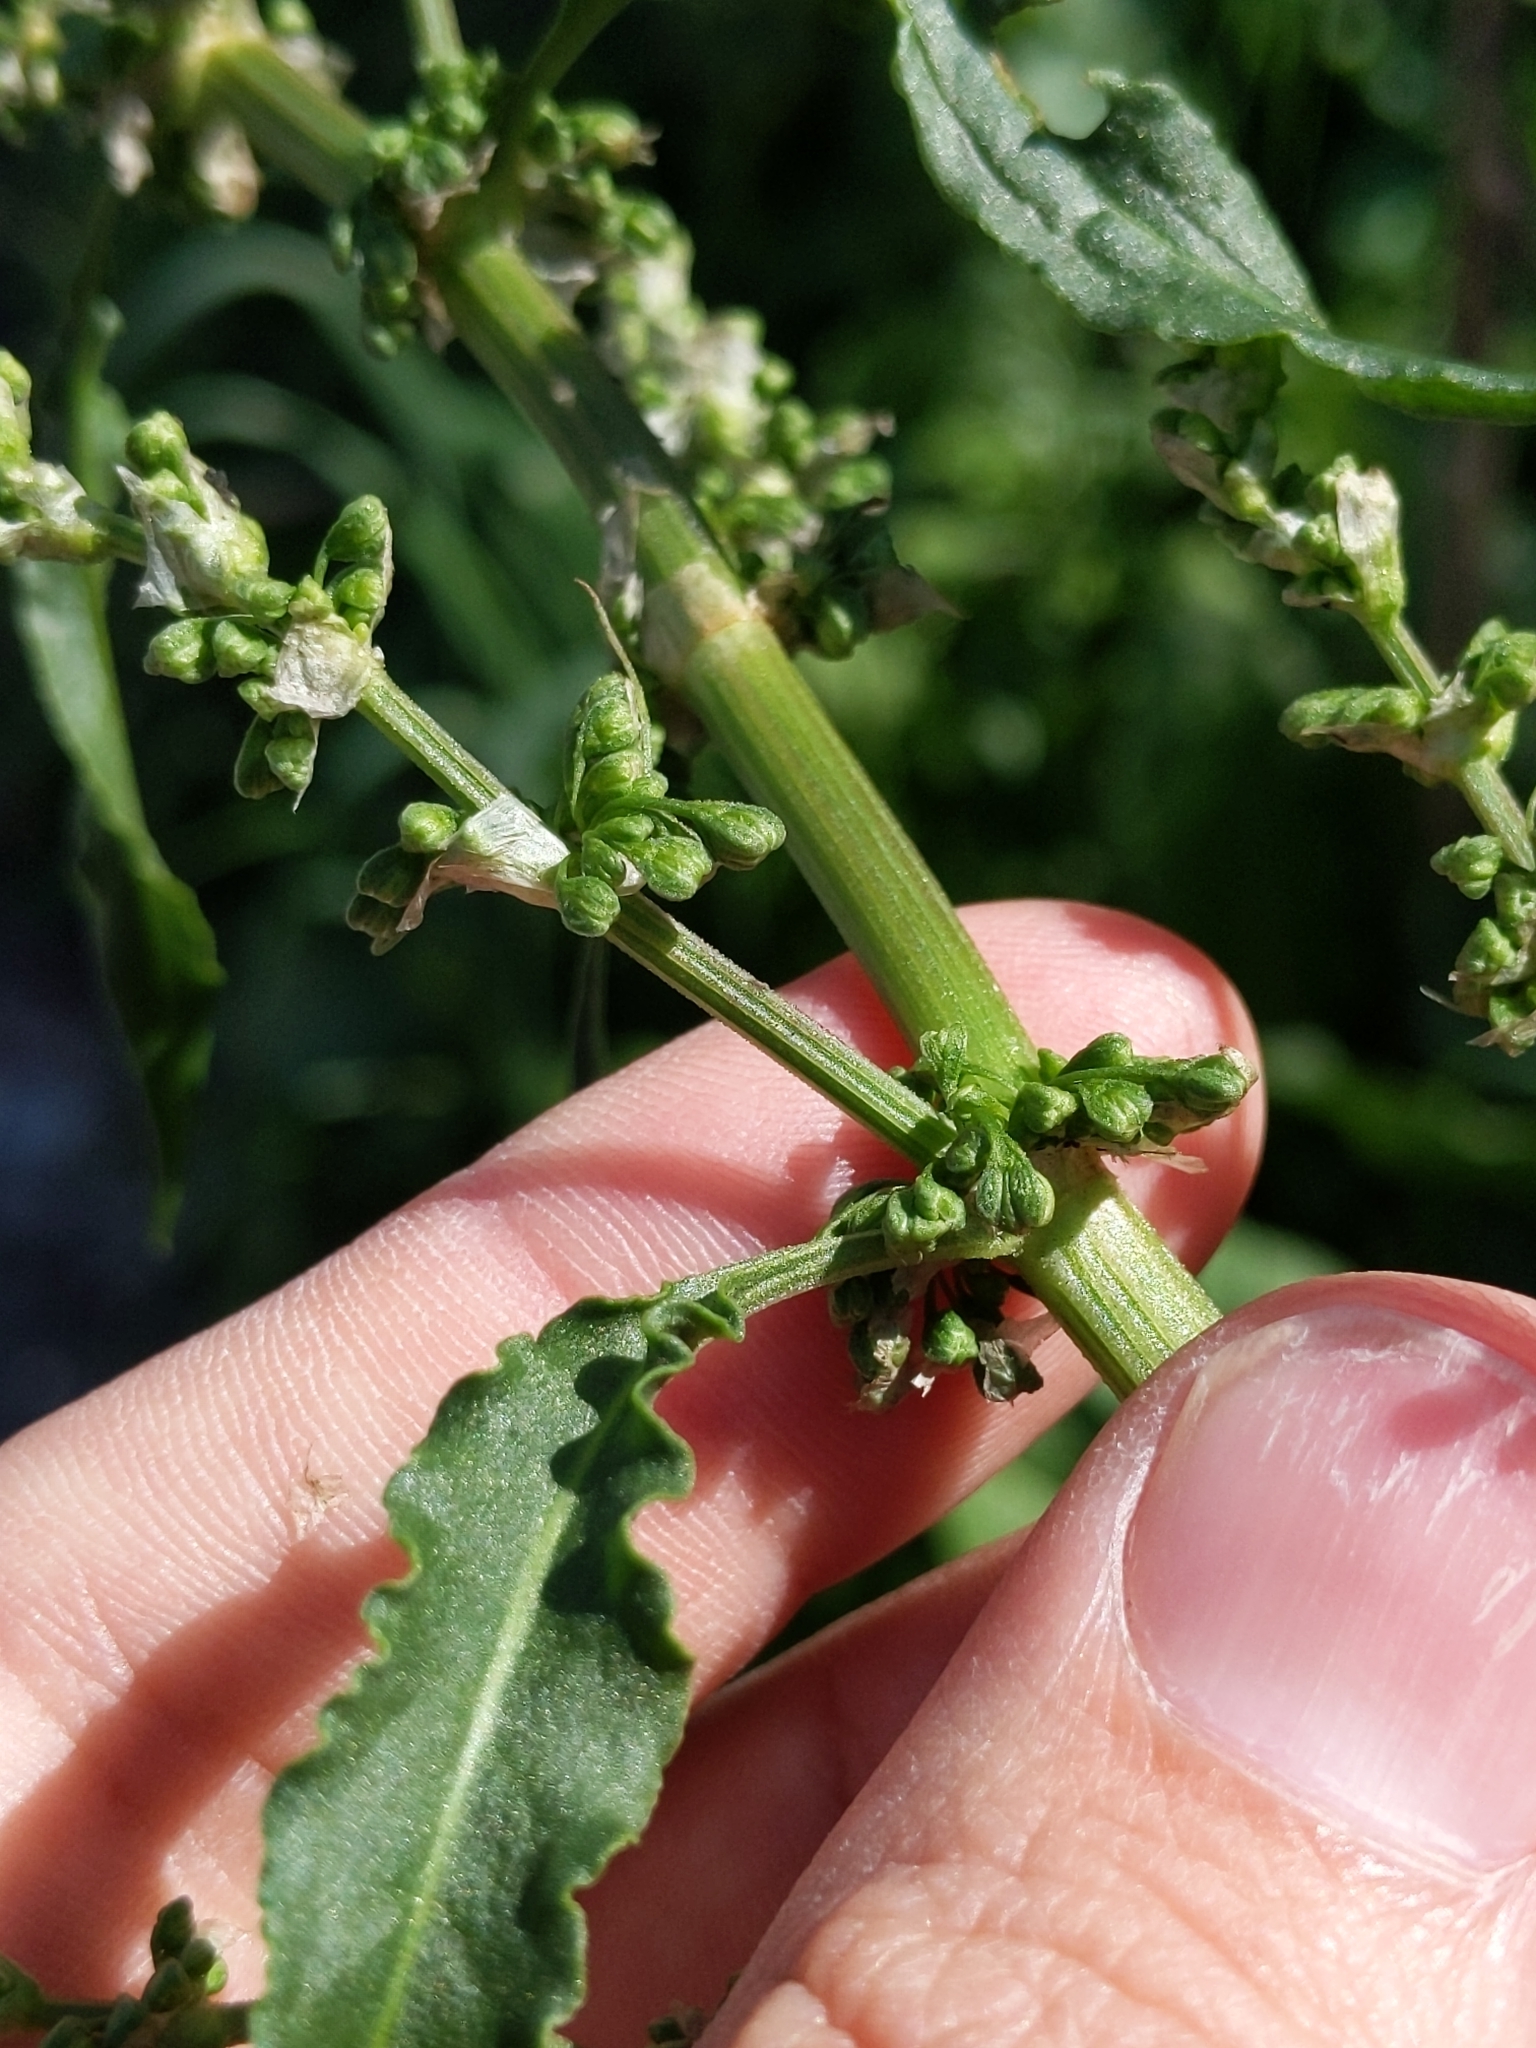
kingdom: Plantae
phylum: Tracheophyta
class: Magnoliopsida
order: Caryophyllales
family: Polygonaceae
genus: Rumex
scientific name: Rumex crispus
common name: Curled dock
